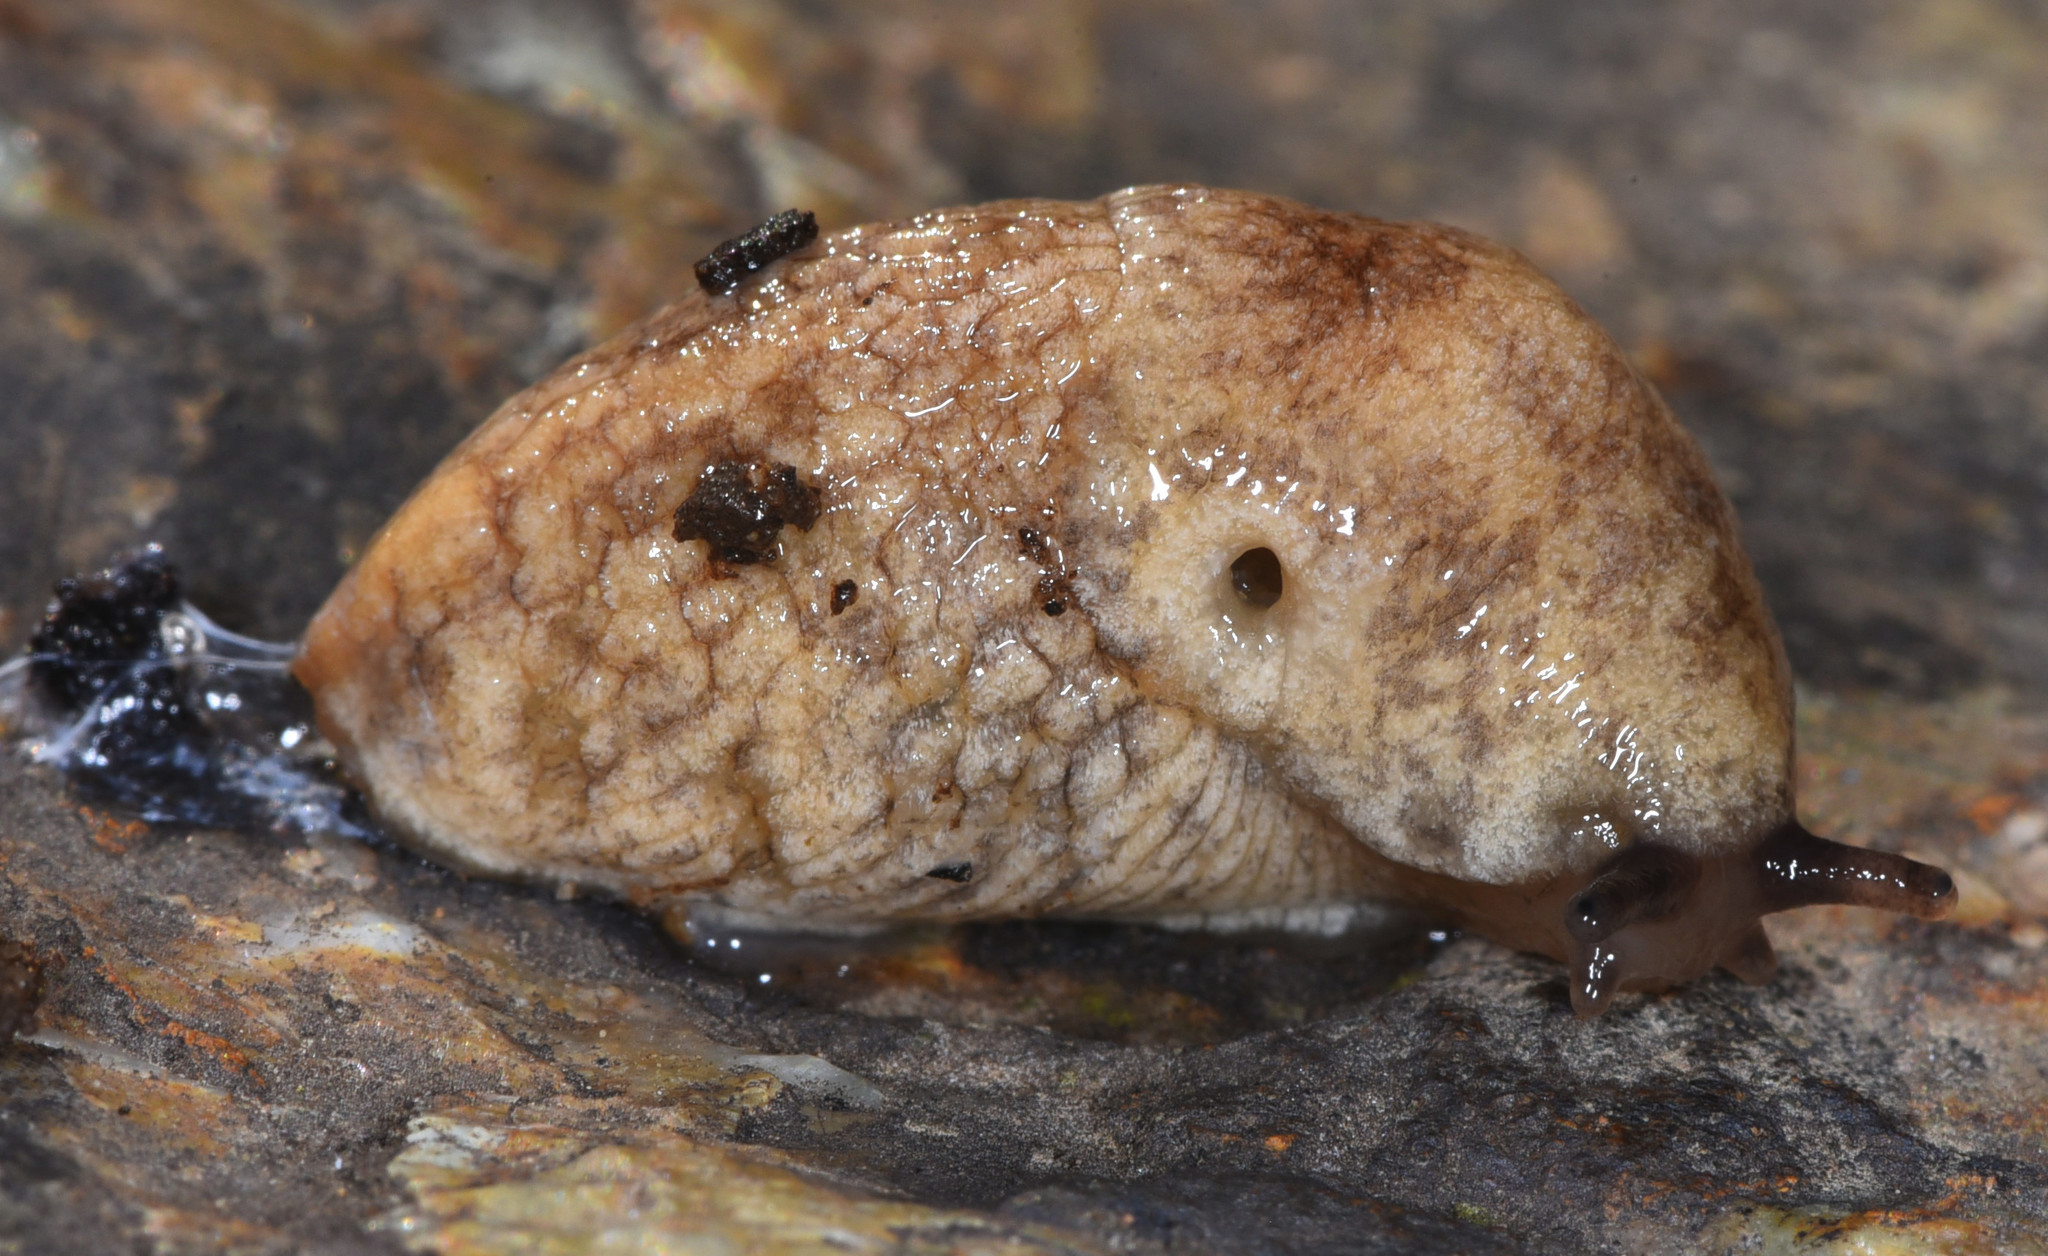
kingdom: Animalia
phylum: Mollusca
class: Gastropoda
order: Stylommatophora
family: Agriolimacidae
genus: Deroceras
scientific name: Deroceras reticulatum
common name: Gray field slug
